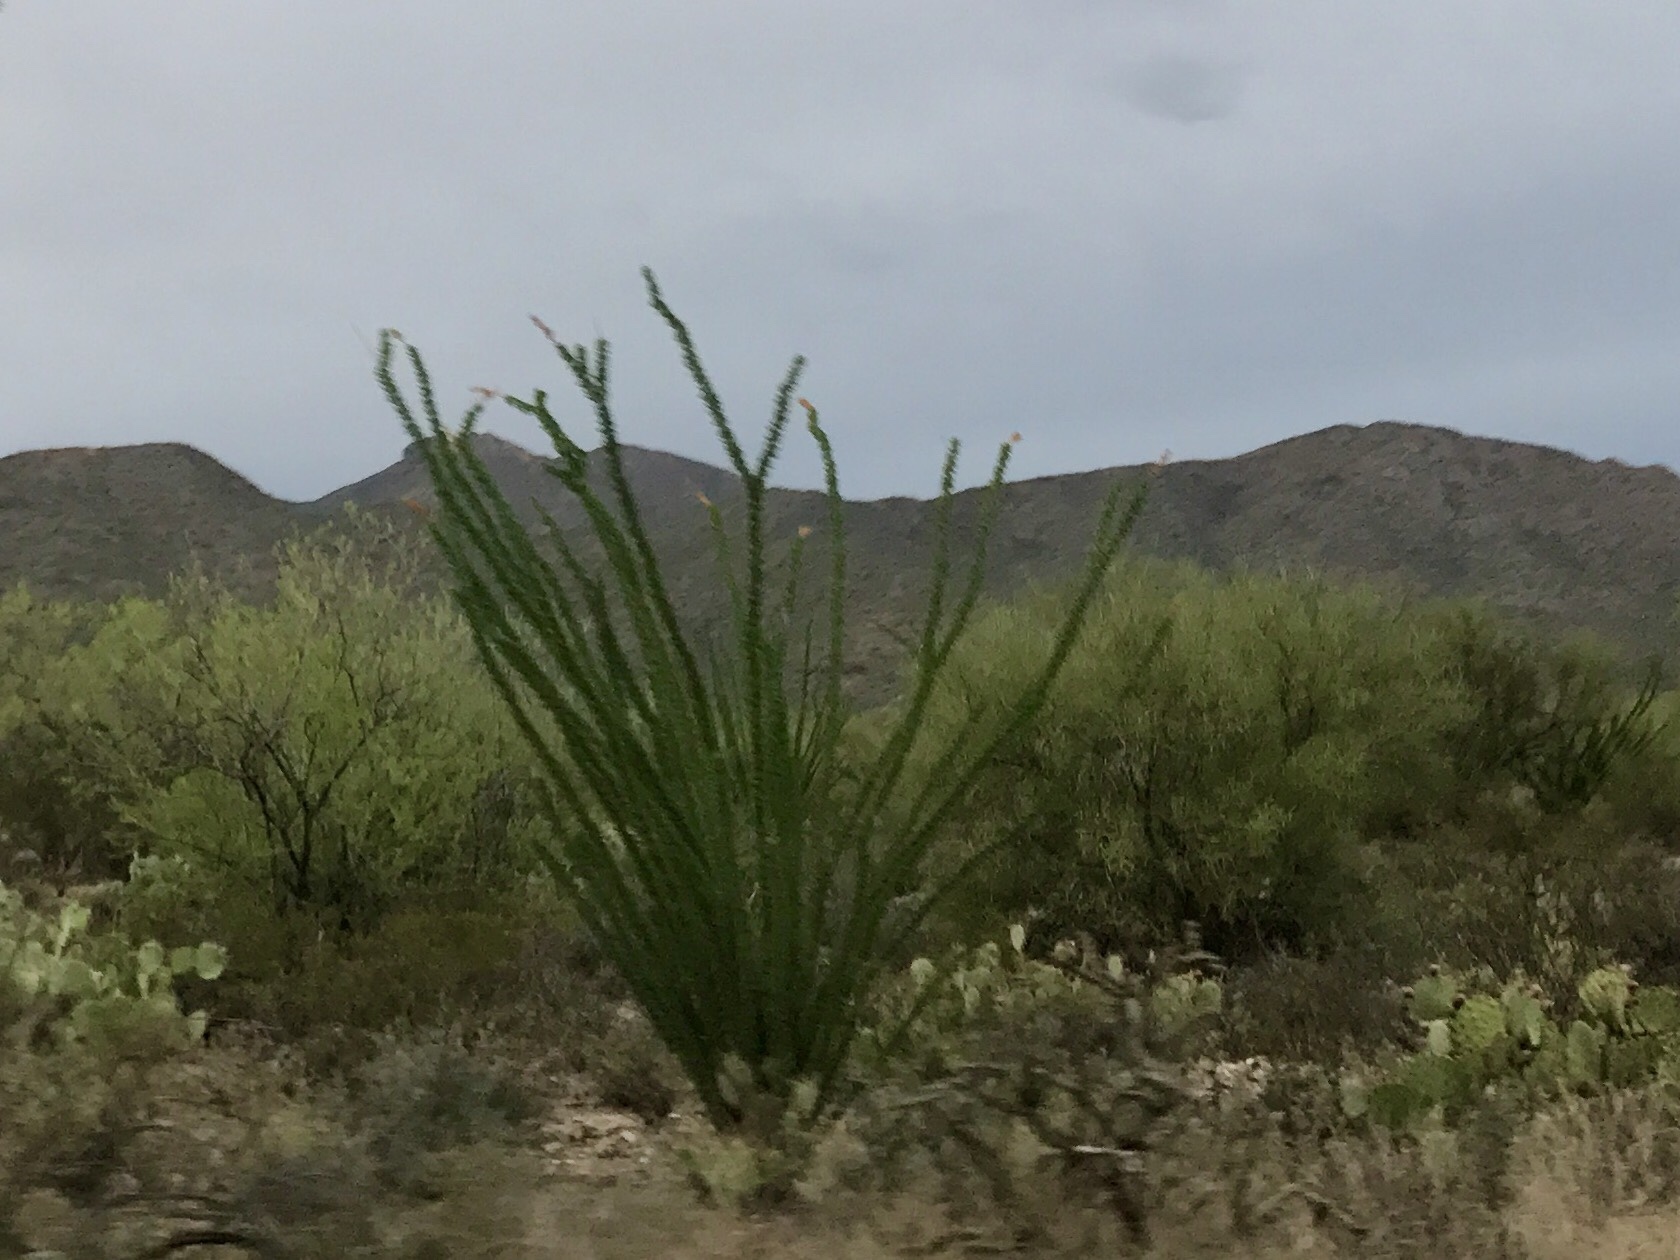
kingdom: Plantae
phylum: Tracheophyta
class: Magnoliopsida
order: Ericales
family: Fouquieriaceae
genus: Fouquieria
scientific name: Fouquieria splendens
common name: Vine-cactus
